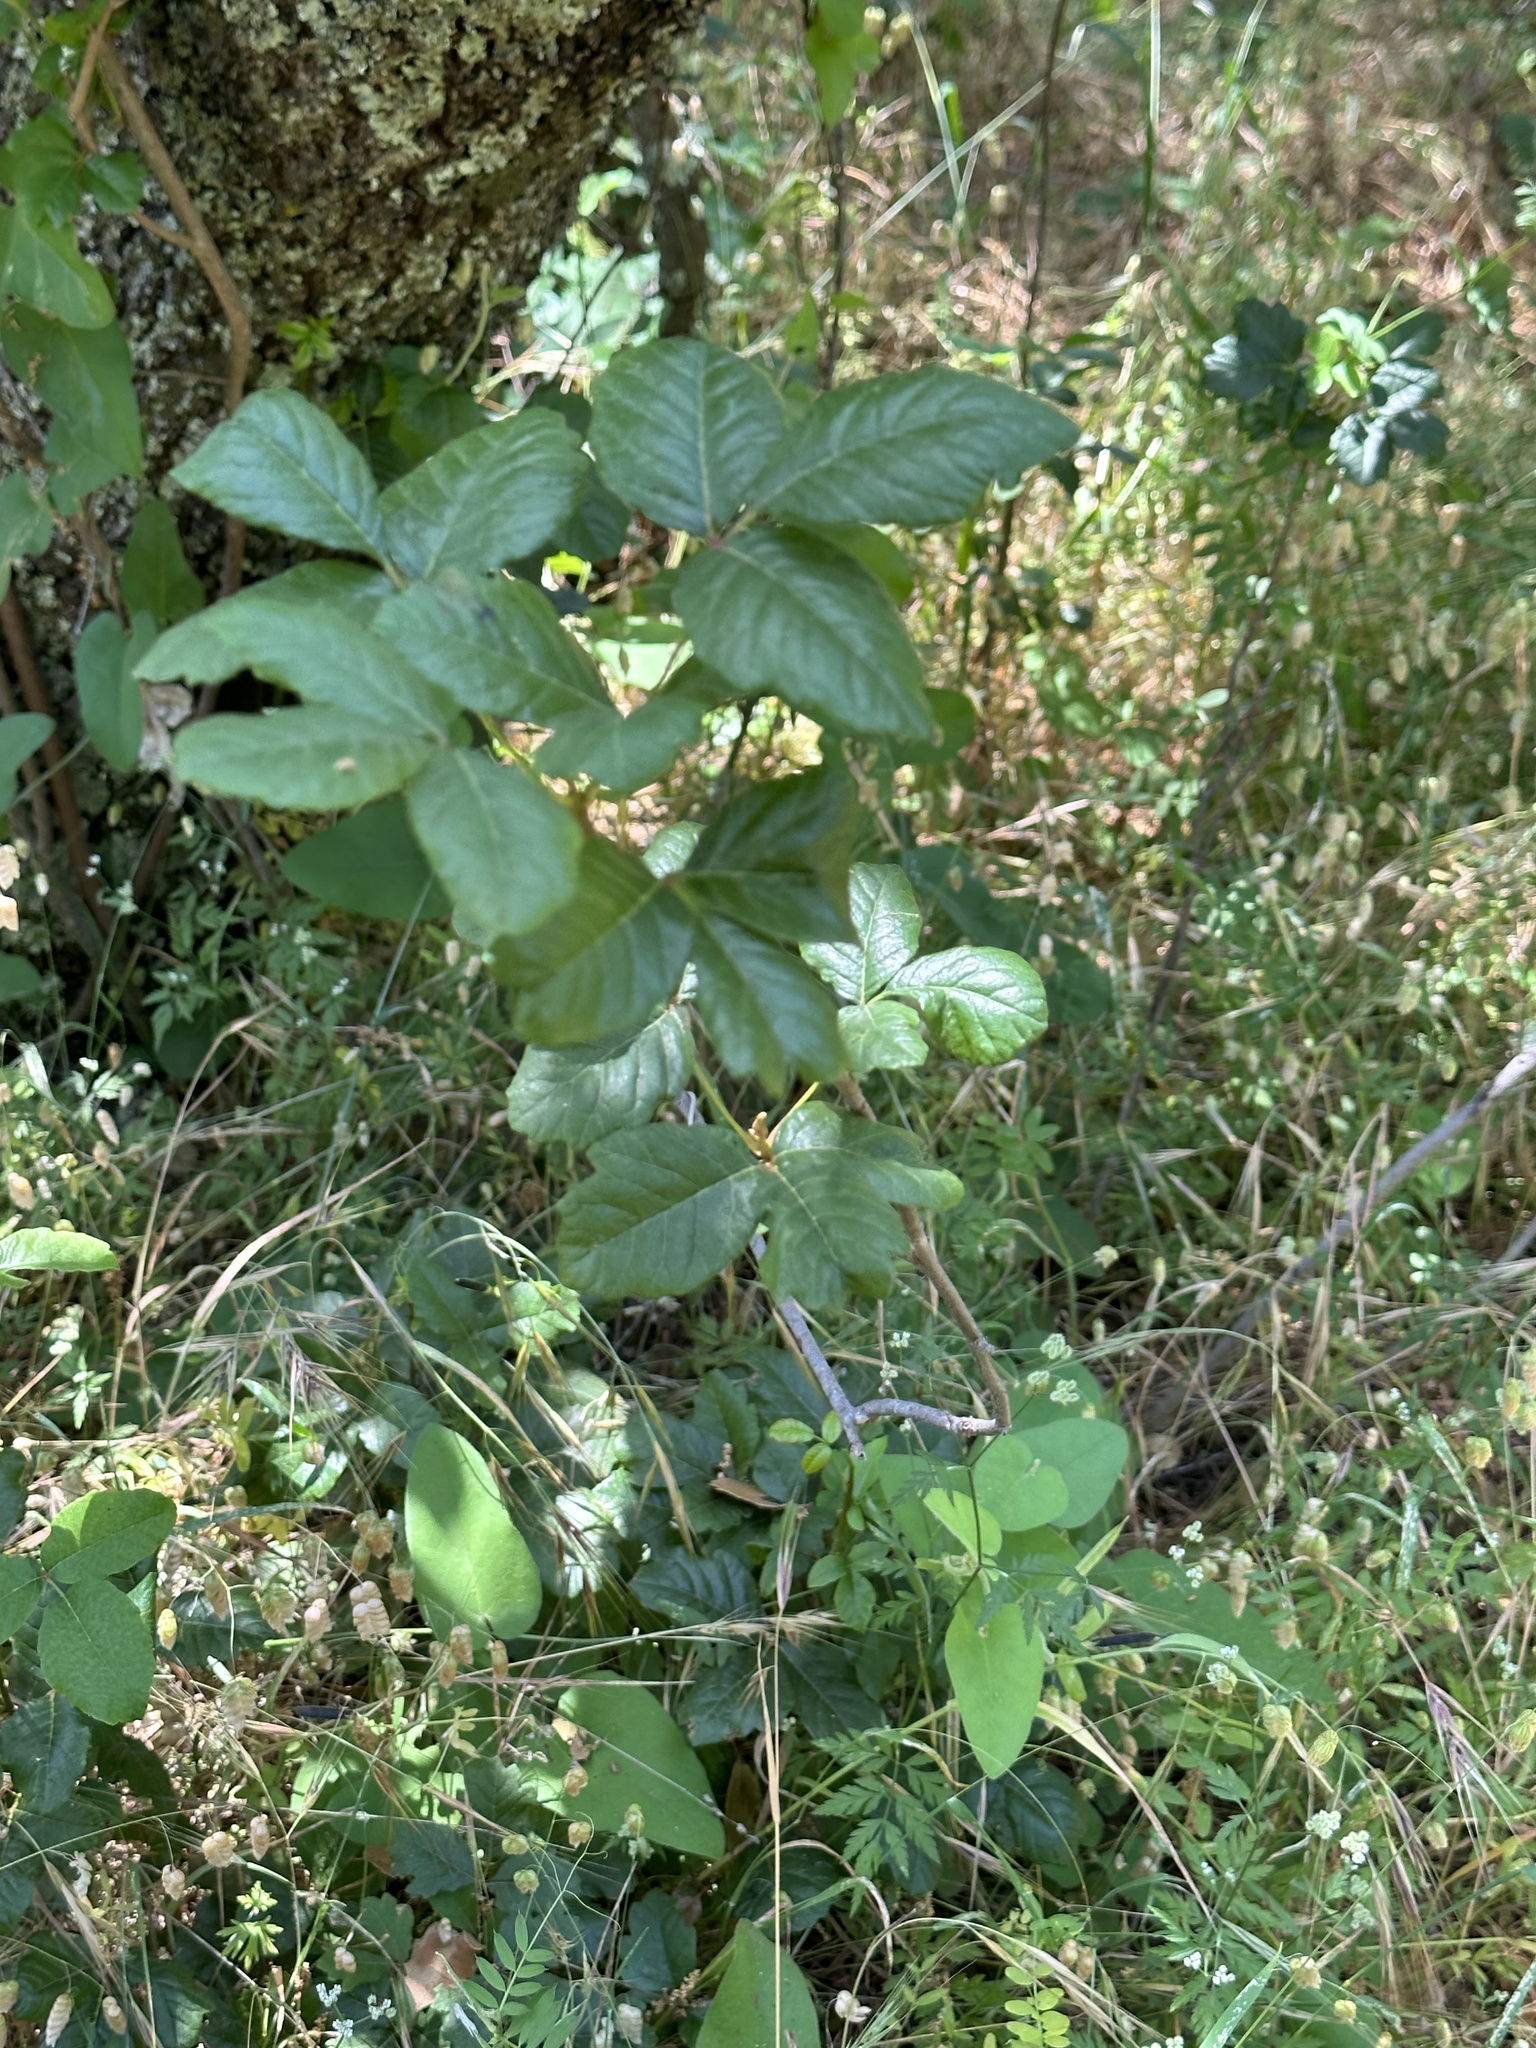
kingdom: Plantae
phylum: Tracheophyta
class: Magnoliopsida
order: Sapindales
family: Anacardiaceae
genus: Toxicodendron
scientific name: Toxicodendron diversilobum
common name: Pacific poison-oak
